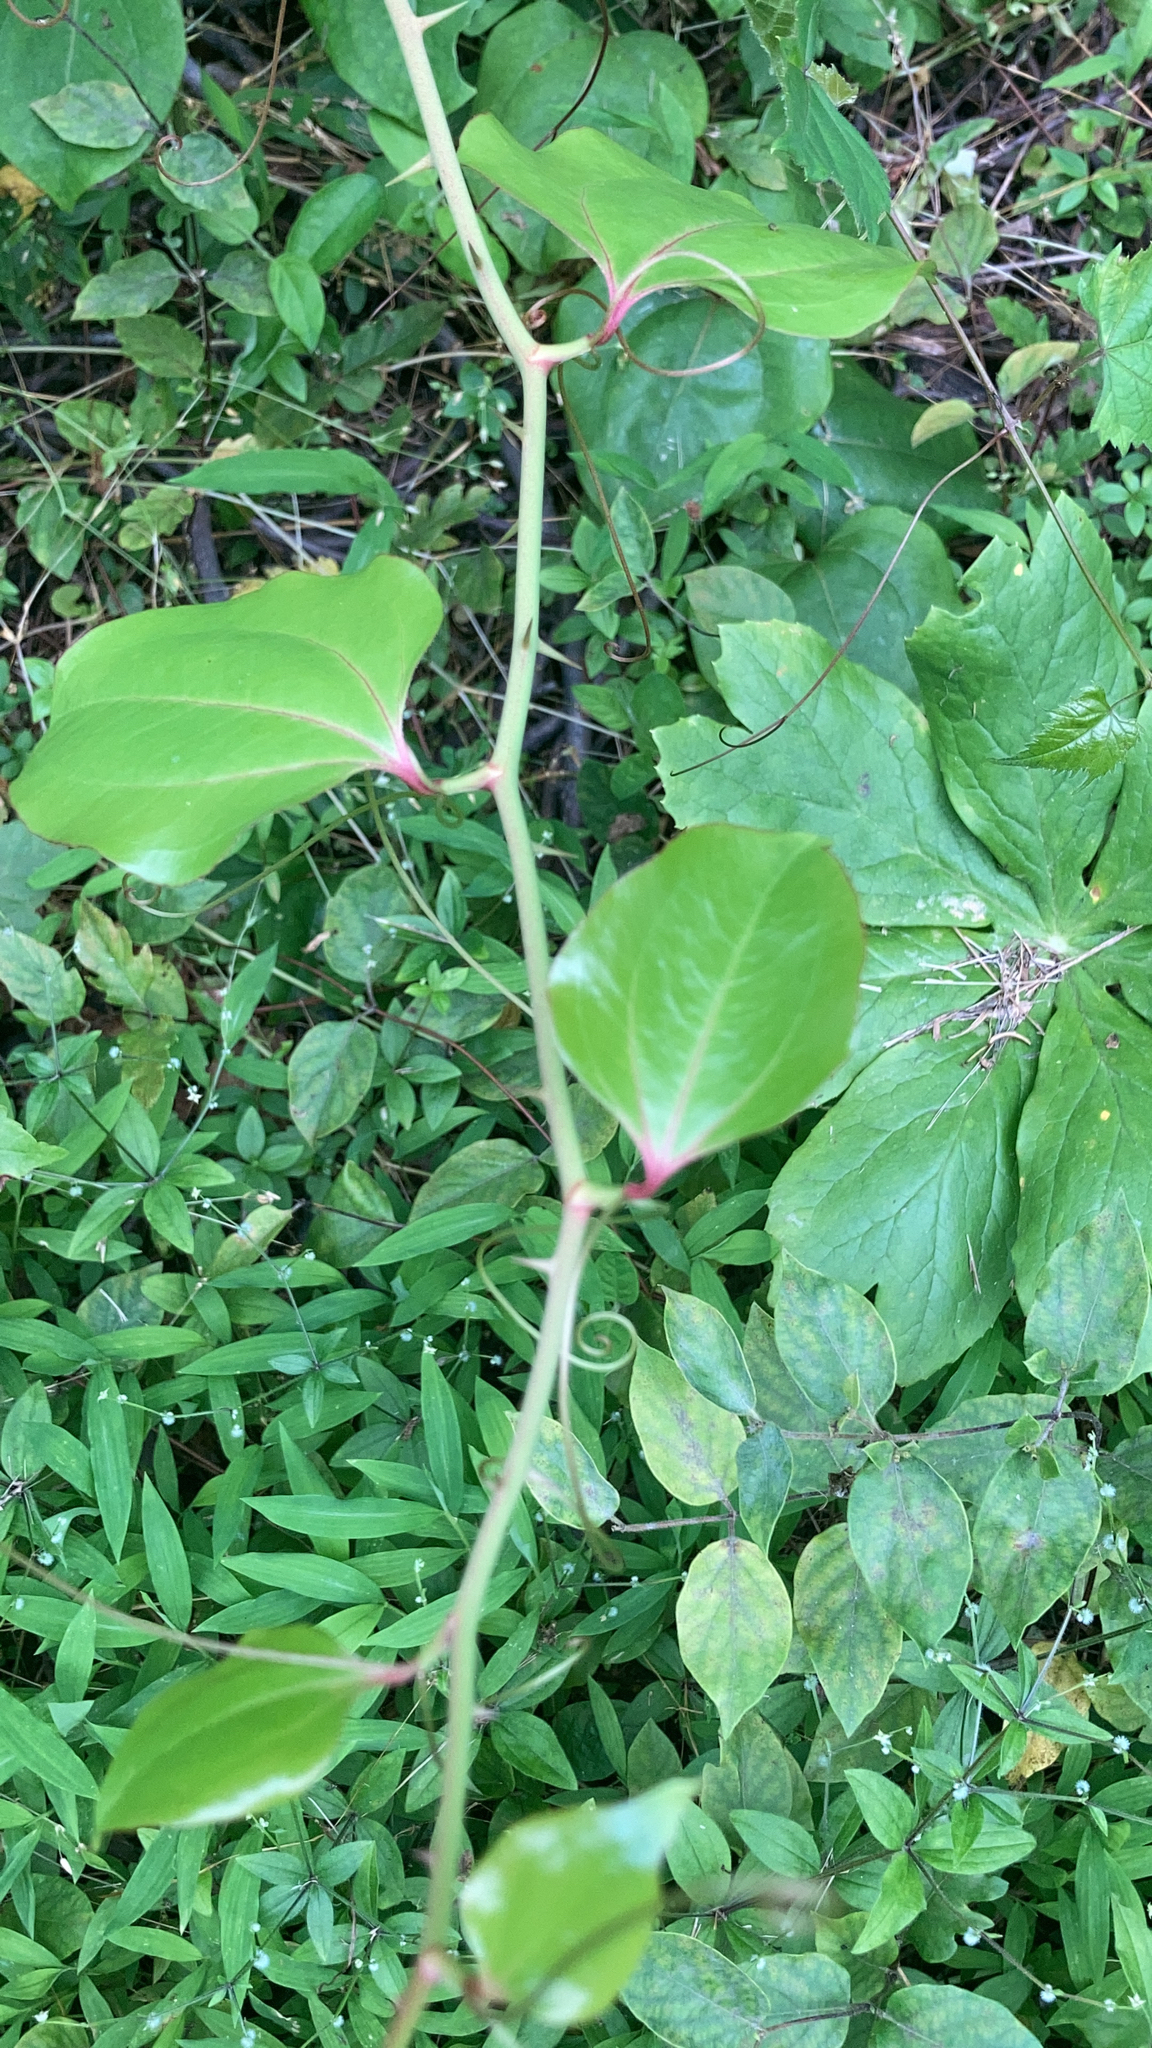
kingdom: Plantae
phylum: Tracheophyta
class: Liliopsida
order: Liliales
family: Smilacaceae
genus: Smilax
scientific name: Smilax rotundifolia
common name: Bullbriar
